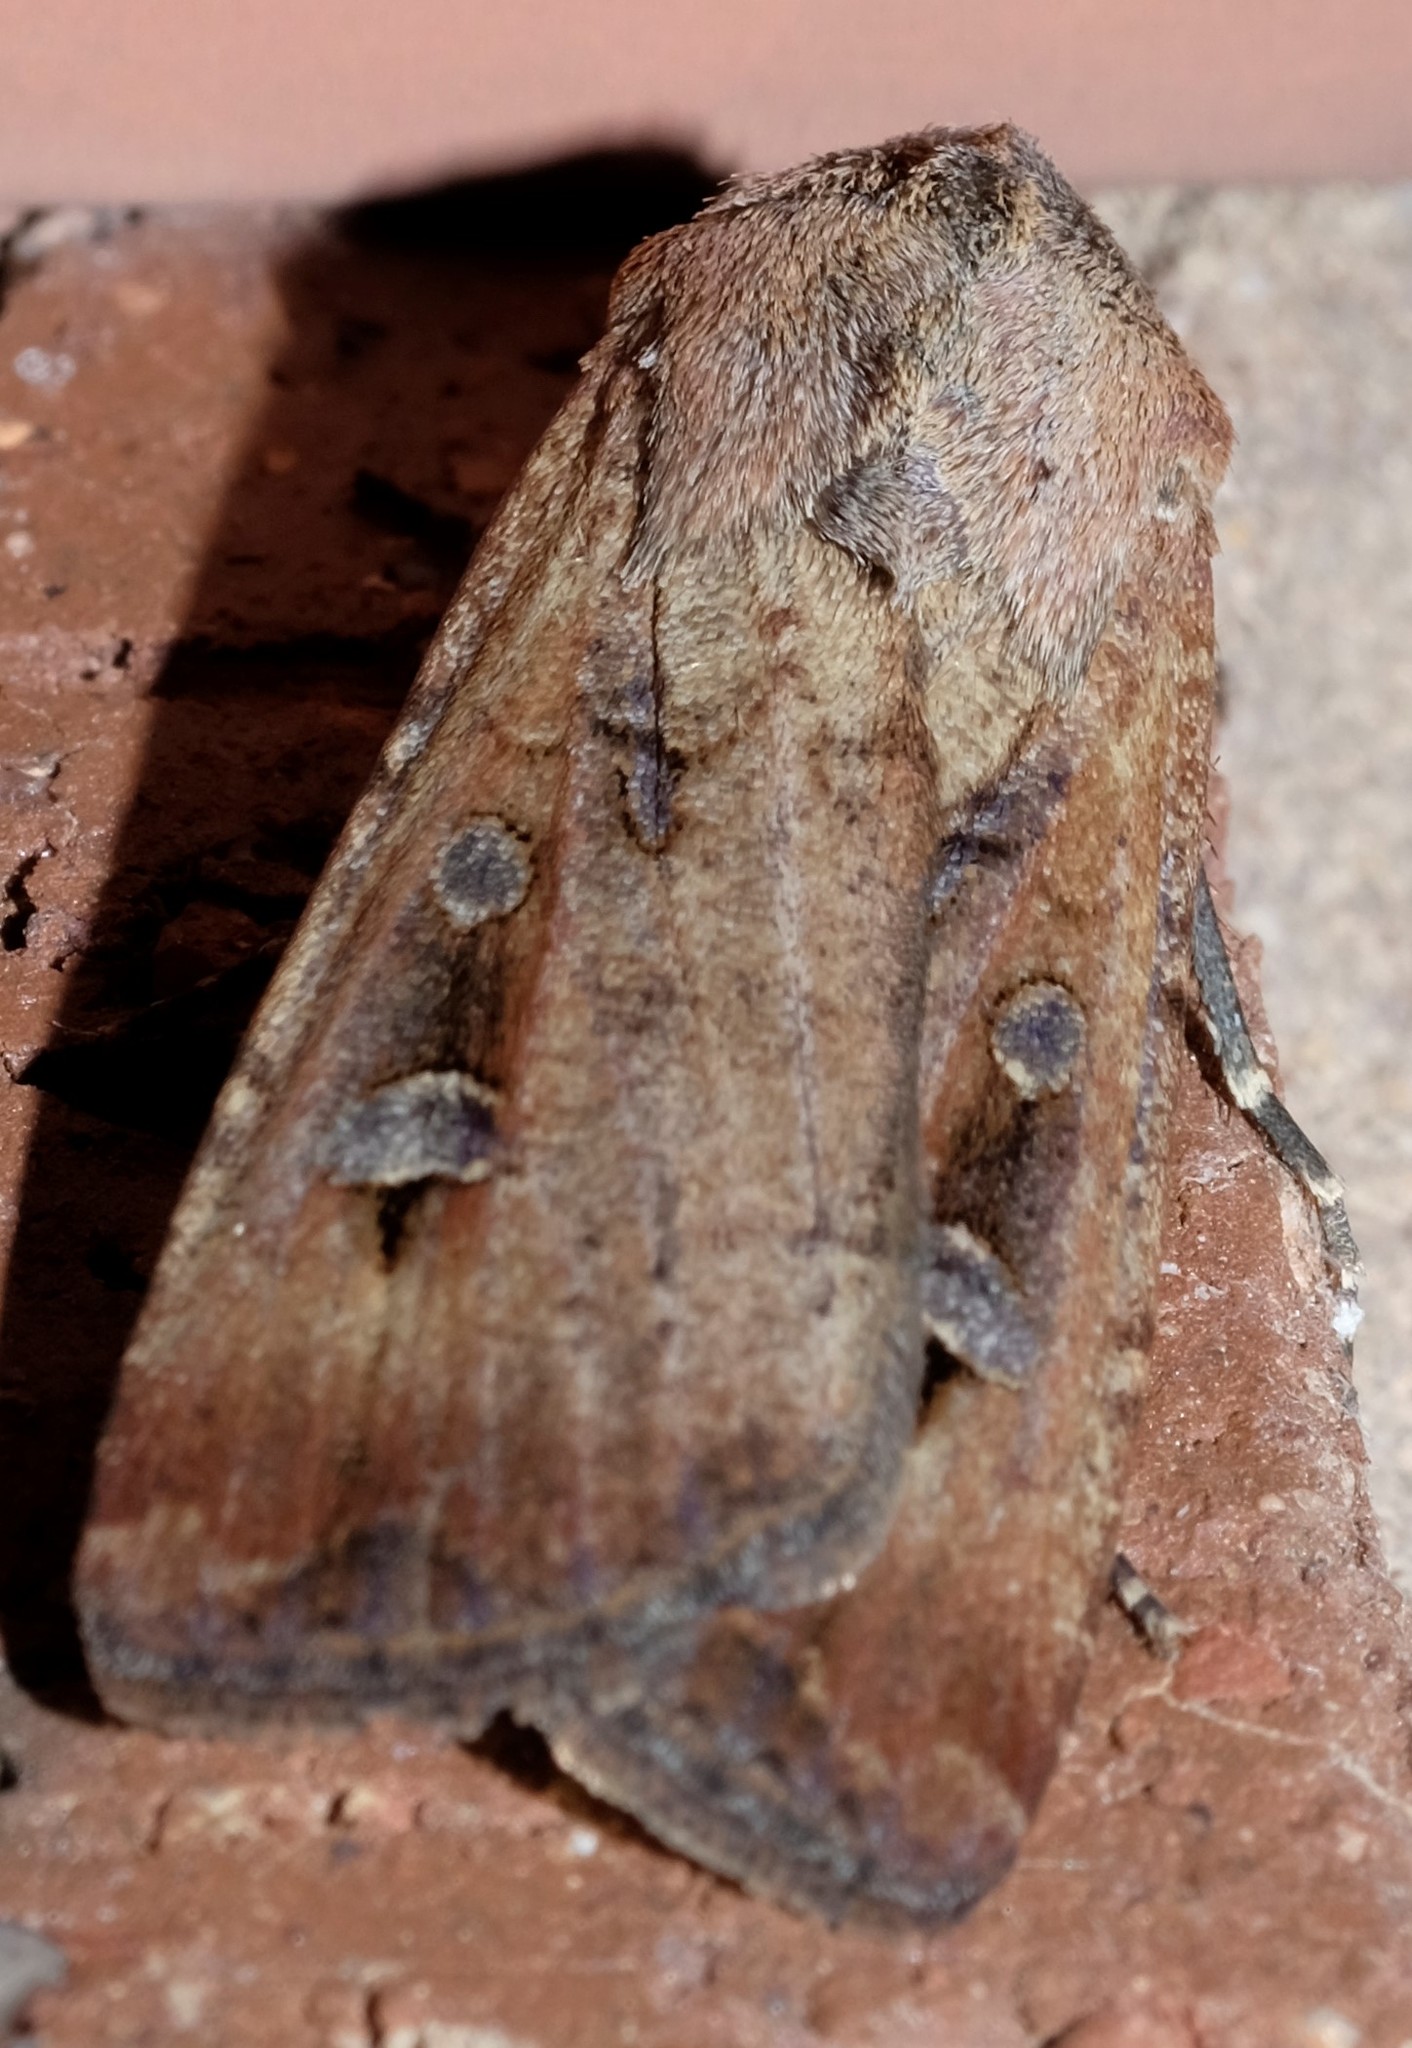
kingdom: Animalia
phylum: Arthropoda
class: Insecta
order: Lepidoptera
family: Noctuidae
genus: Agrotis
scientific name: Agrotis infusa
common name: Bogong moth
